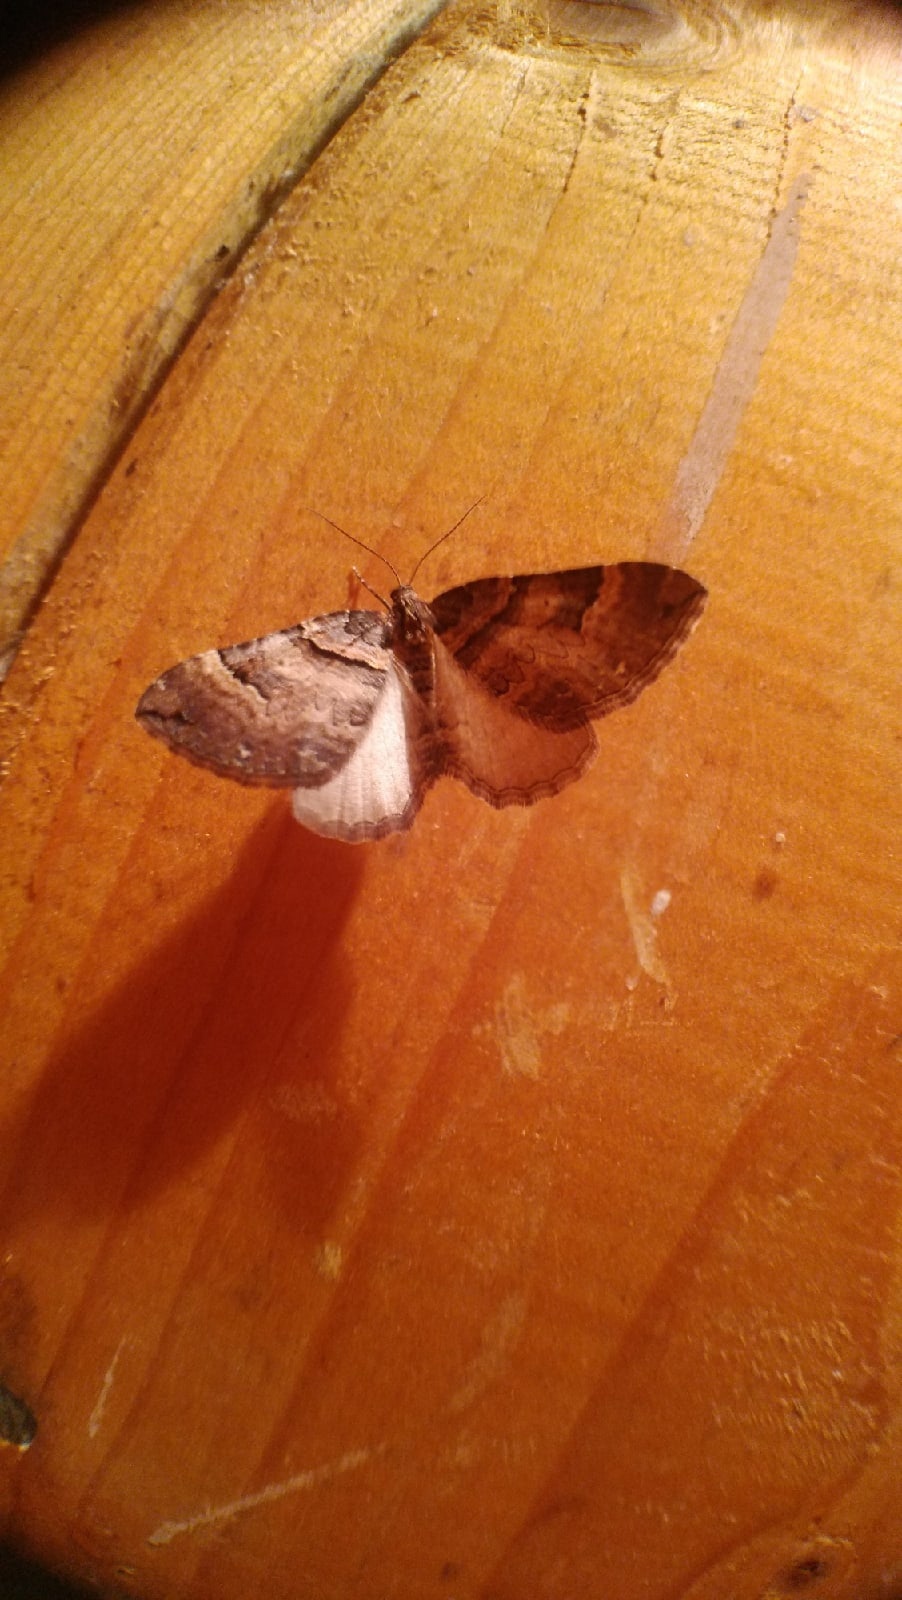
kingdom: Animalia
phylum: Arthropoda
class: Insecta
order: Lepidoptera
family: Geometridae
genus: Anticlea
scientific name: Anticlea badiata
